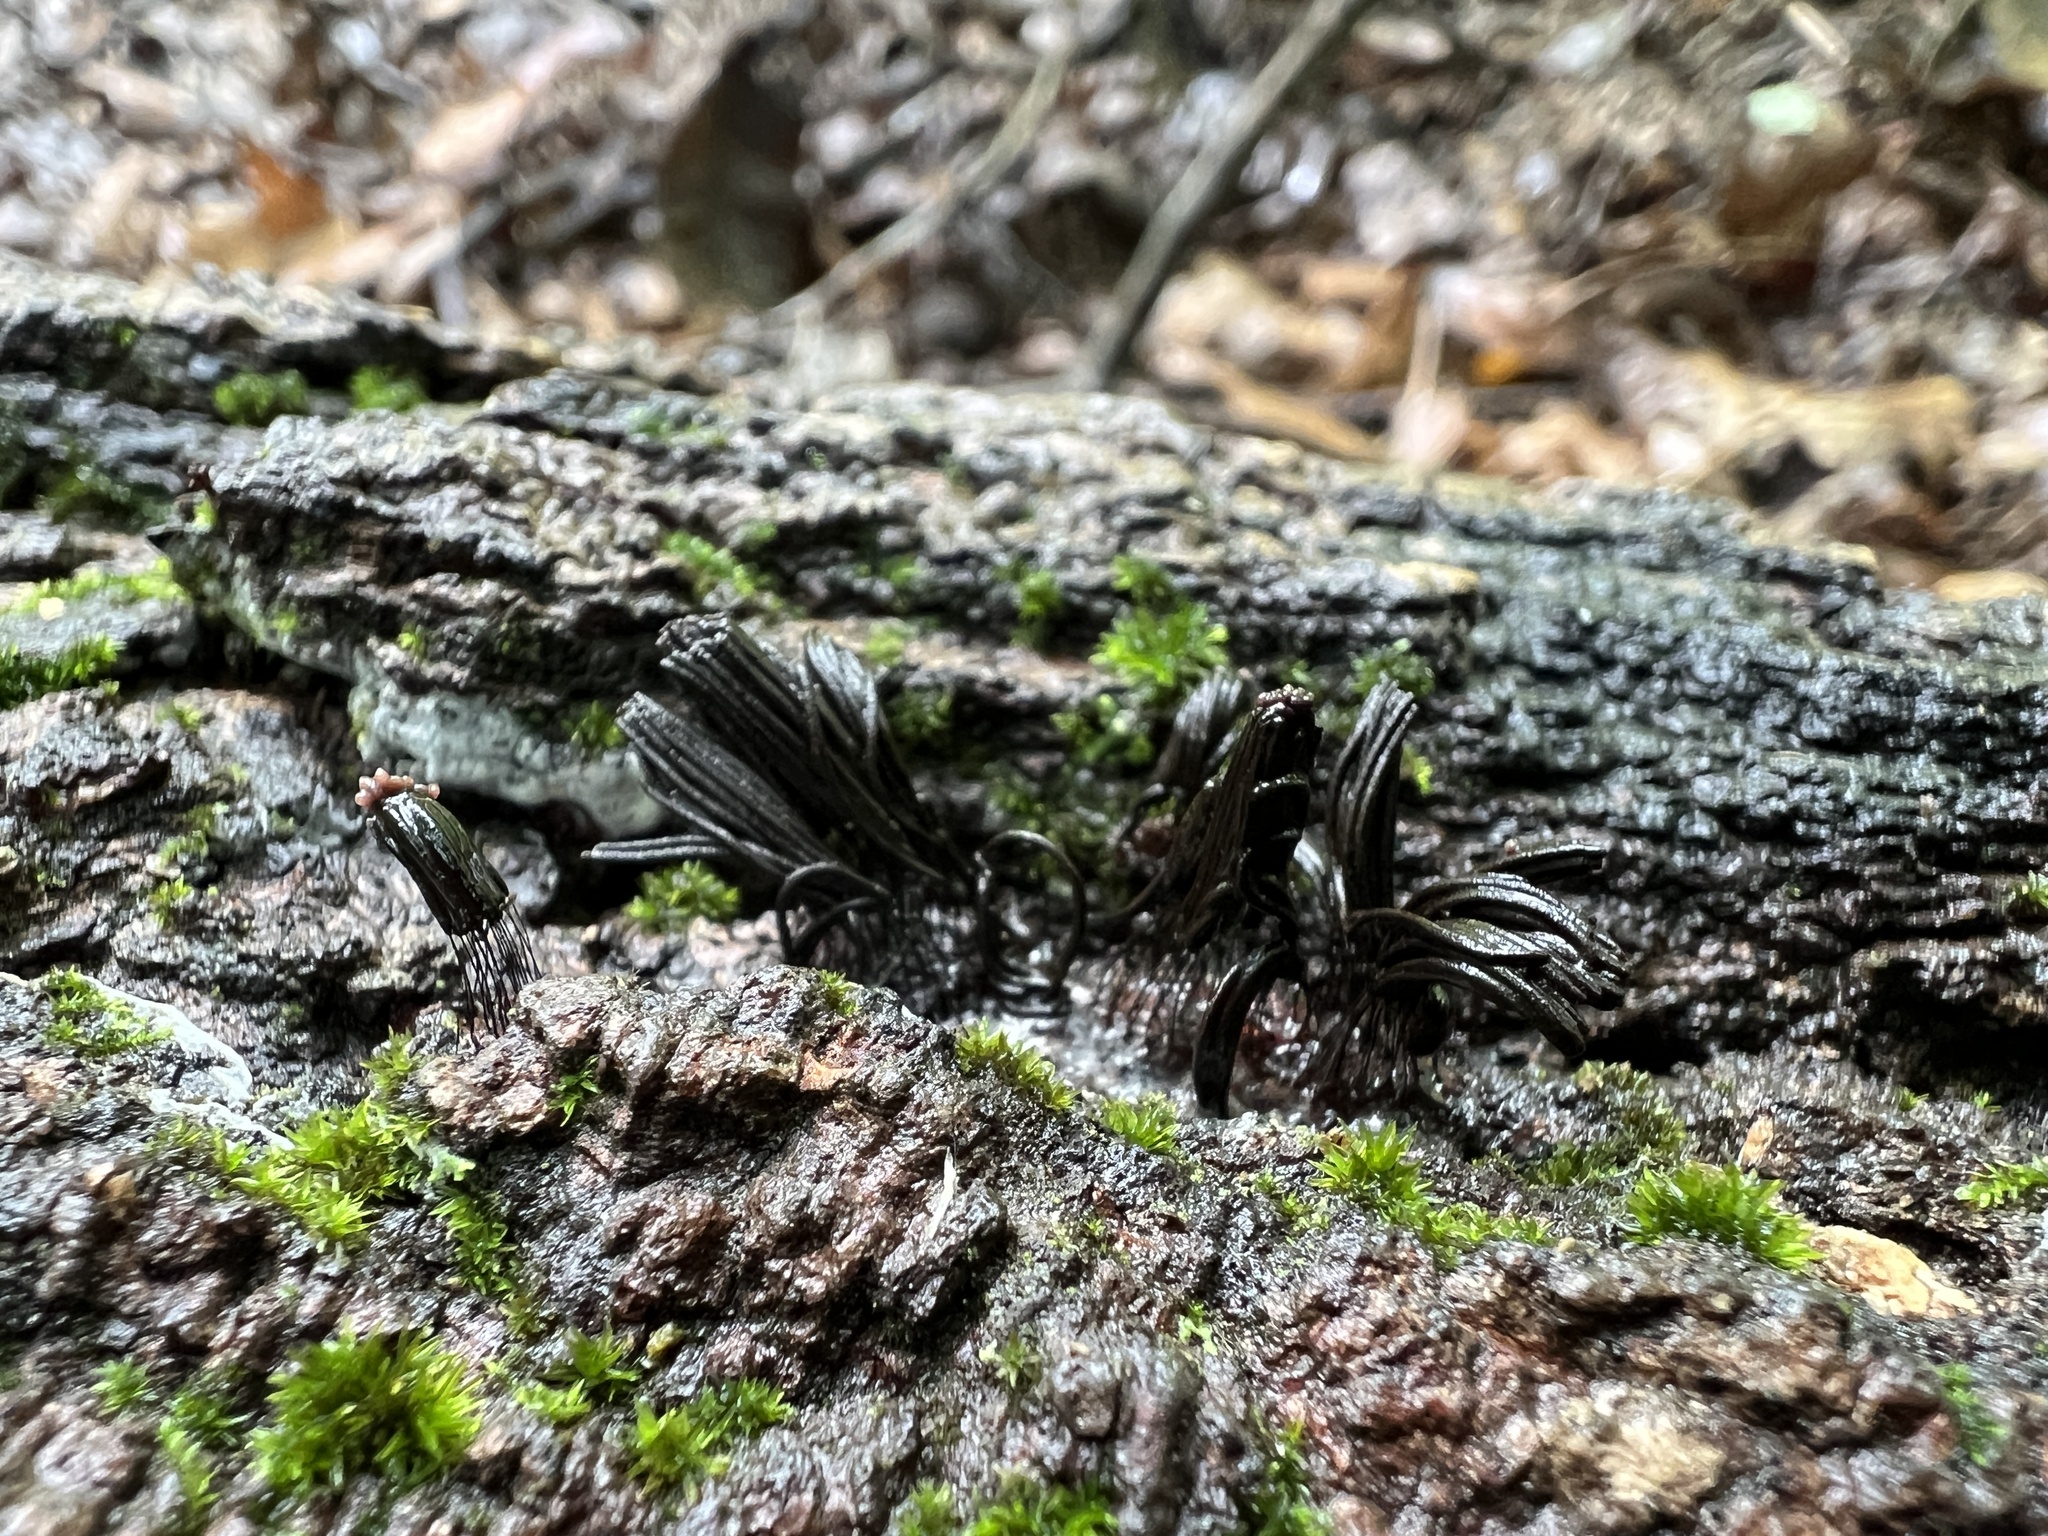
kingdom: Protozoa
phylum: Mycetozoa
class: Myxomycetes
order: Stemonitidales
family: Stemonitidaceae
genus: Stemonitis
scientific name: Stemonitis splendens
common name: Chocolate tube slime
